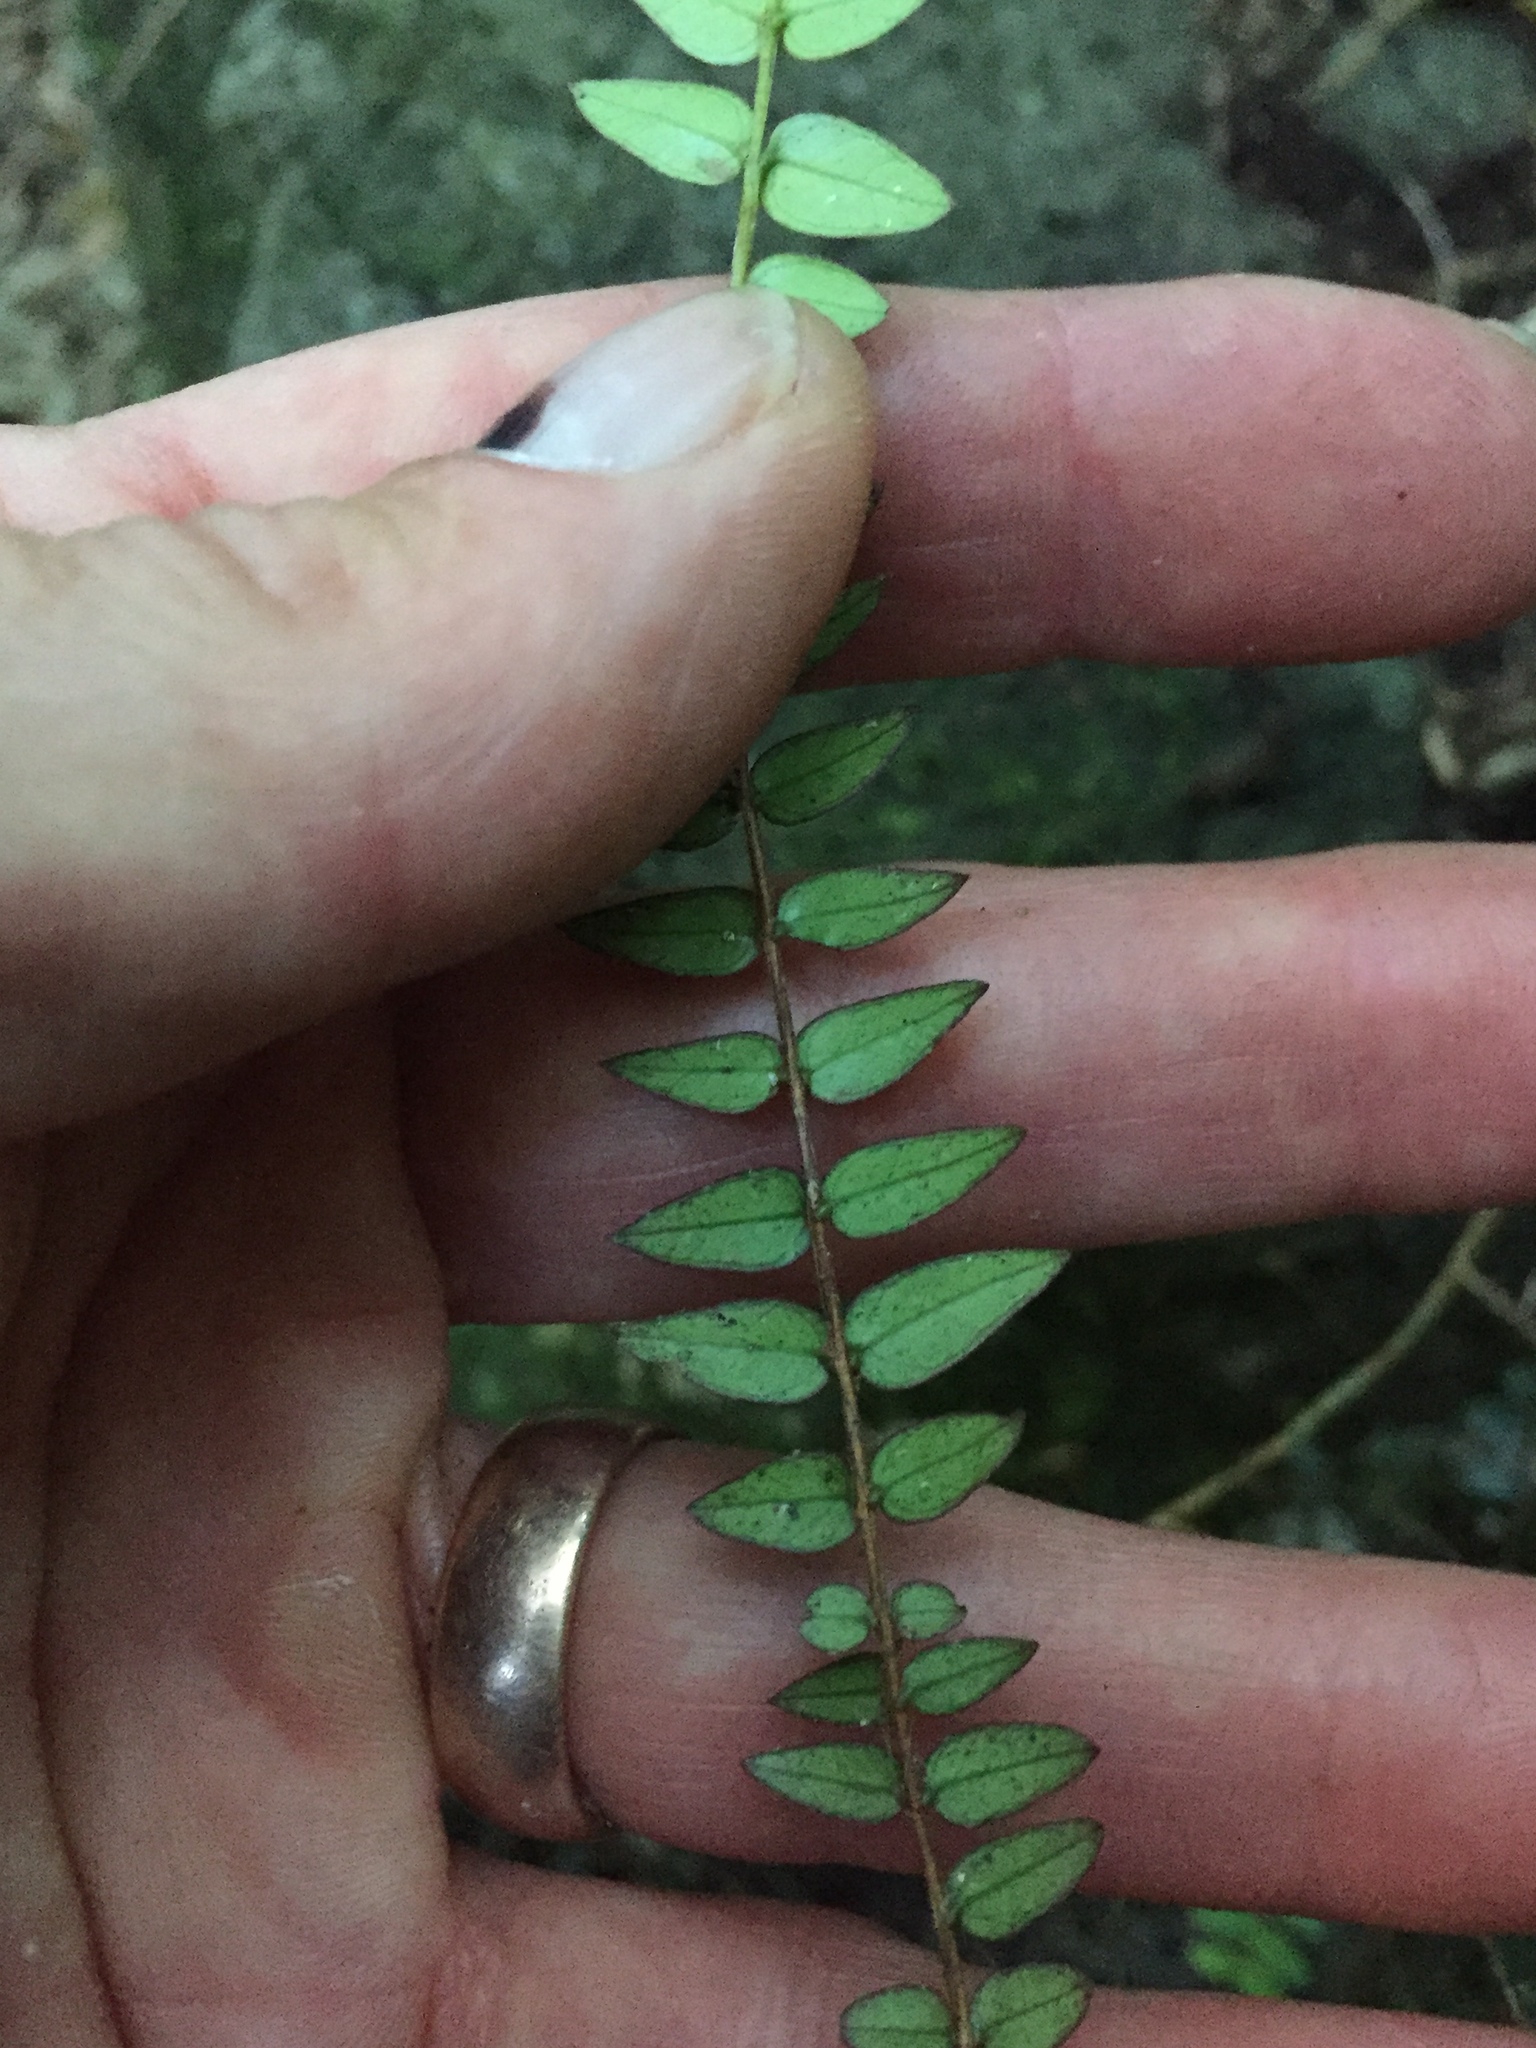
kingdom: Plantae
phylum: Tracheophyta
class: Magnoliopsida
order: Myrtales
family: Myrtaceae
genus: Metrosideros
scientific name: Metrosideros diffusa
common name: Small ratavine
